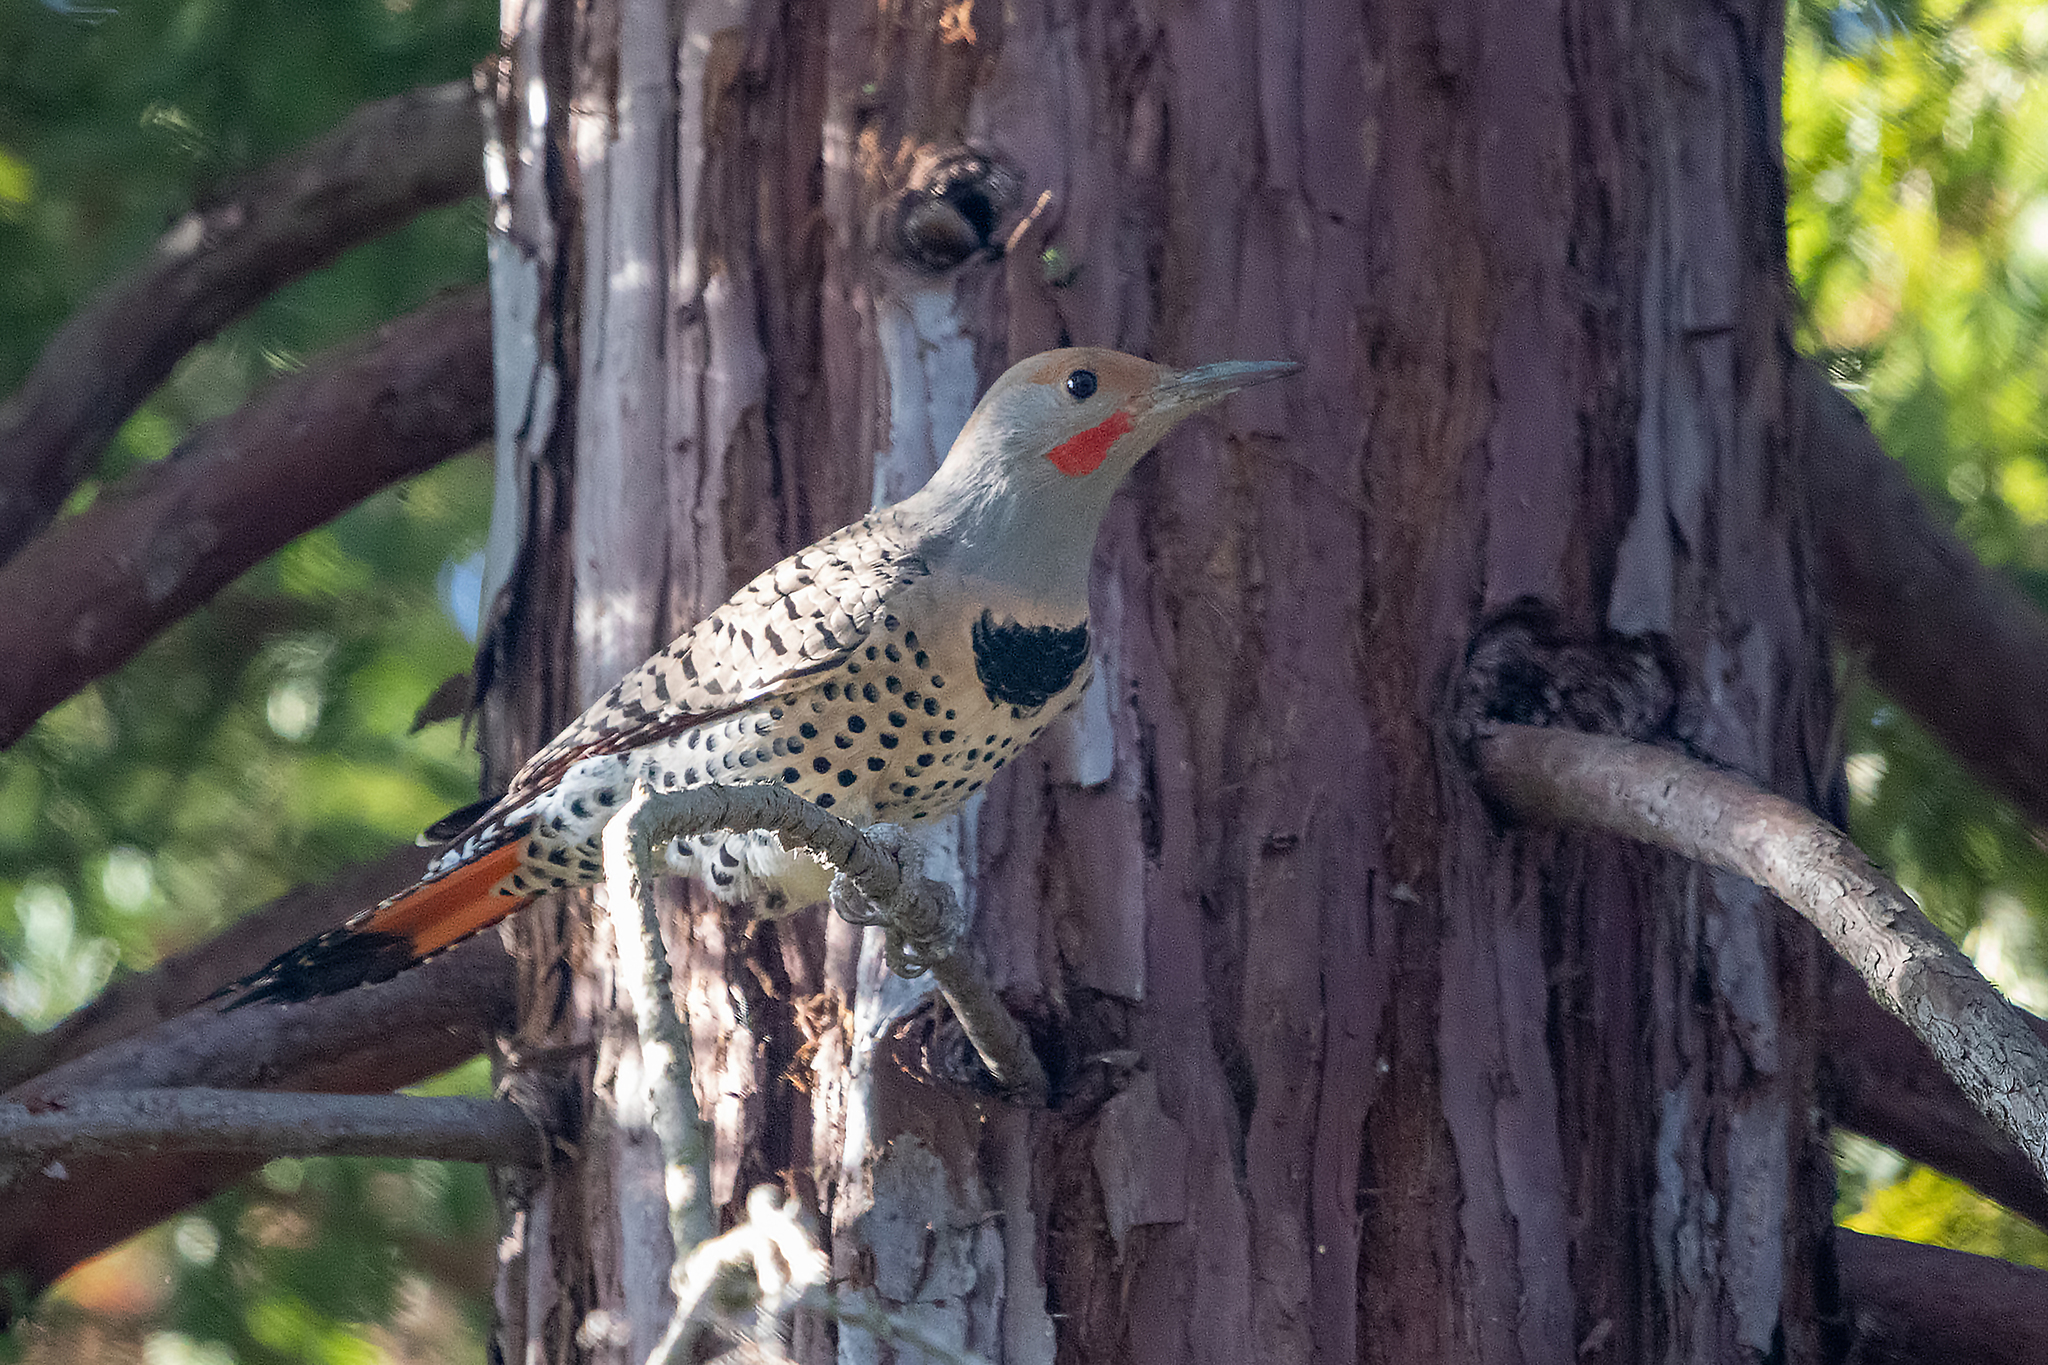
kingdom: Animalia
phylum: Chordata
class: Aves
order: Piciformes
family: Picidae
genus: Colaptes
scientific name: Colaptes auratus
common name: Northern flicker
